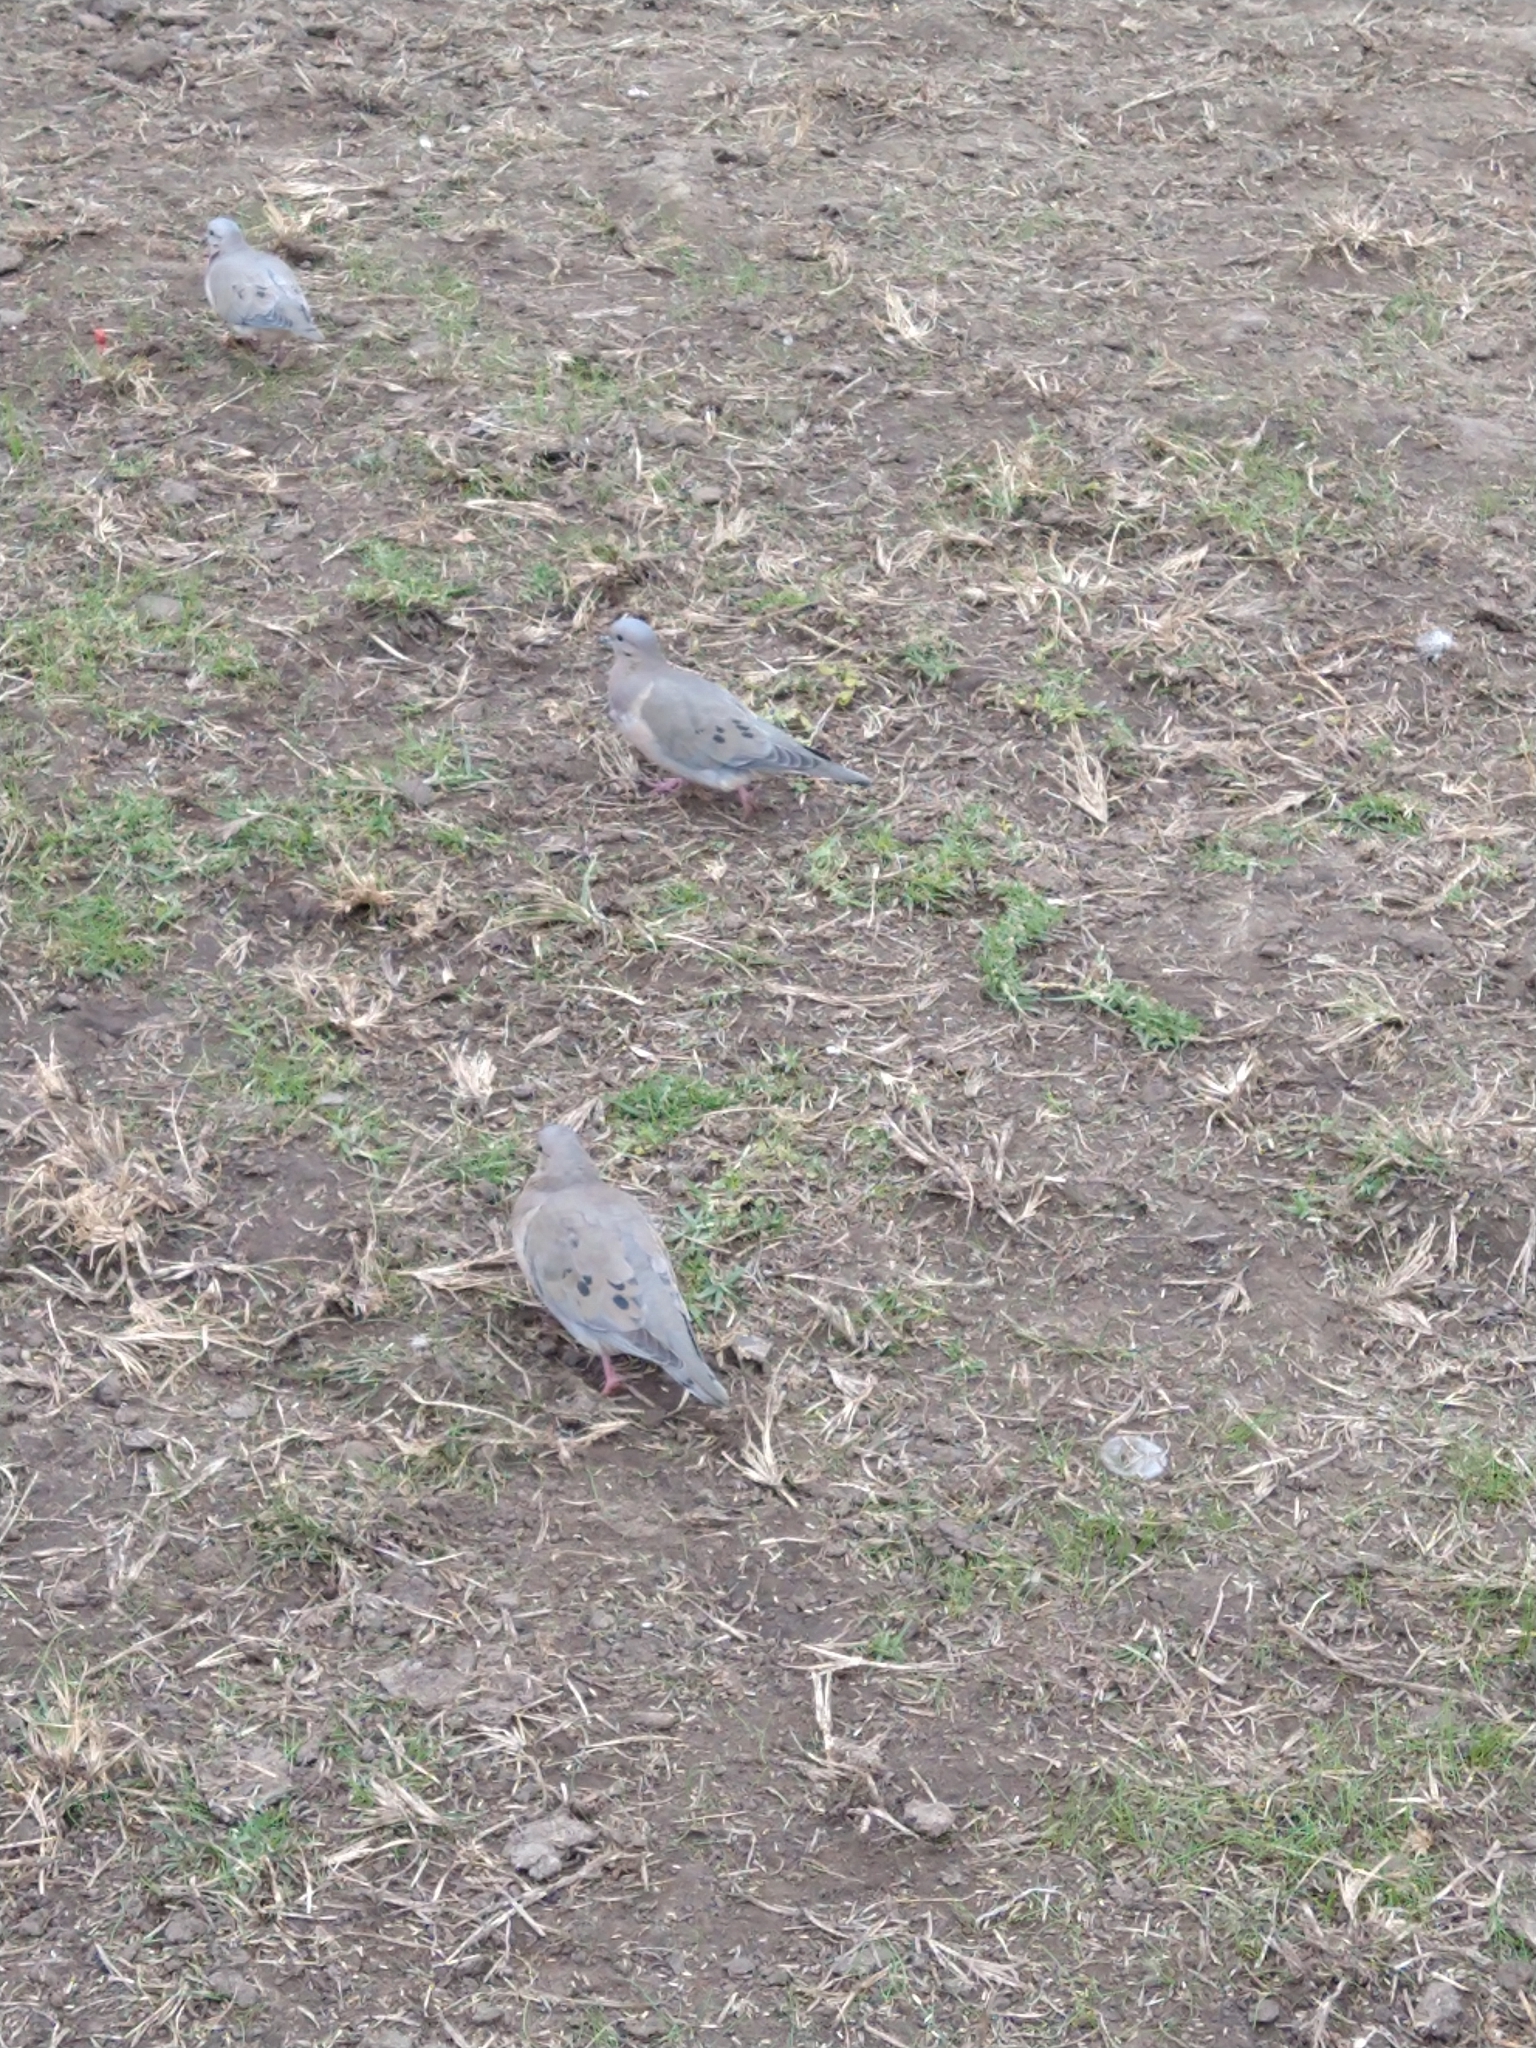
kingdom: Animalia
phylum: Chordata
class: Aves
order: Columbiformes
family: Columbidae
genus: Zenaida
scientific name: Zenaida auriculata
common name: Eared dove
